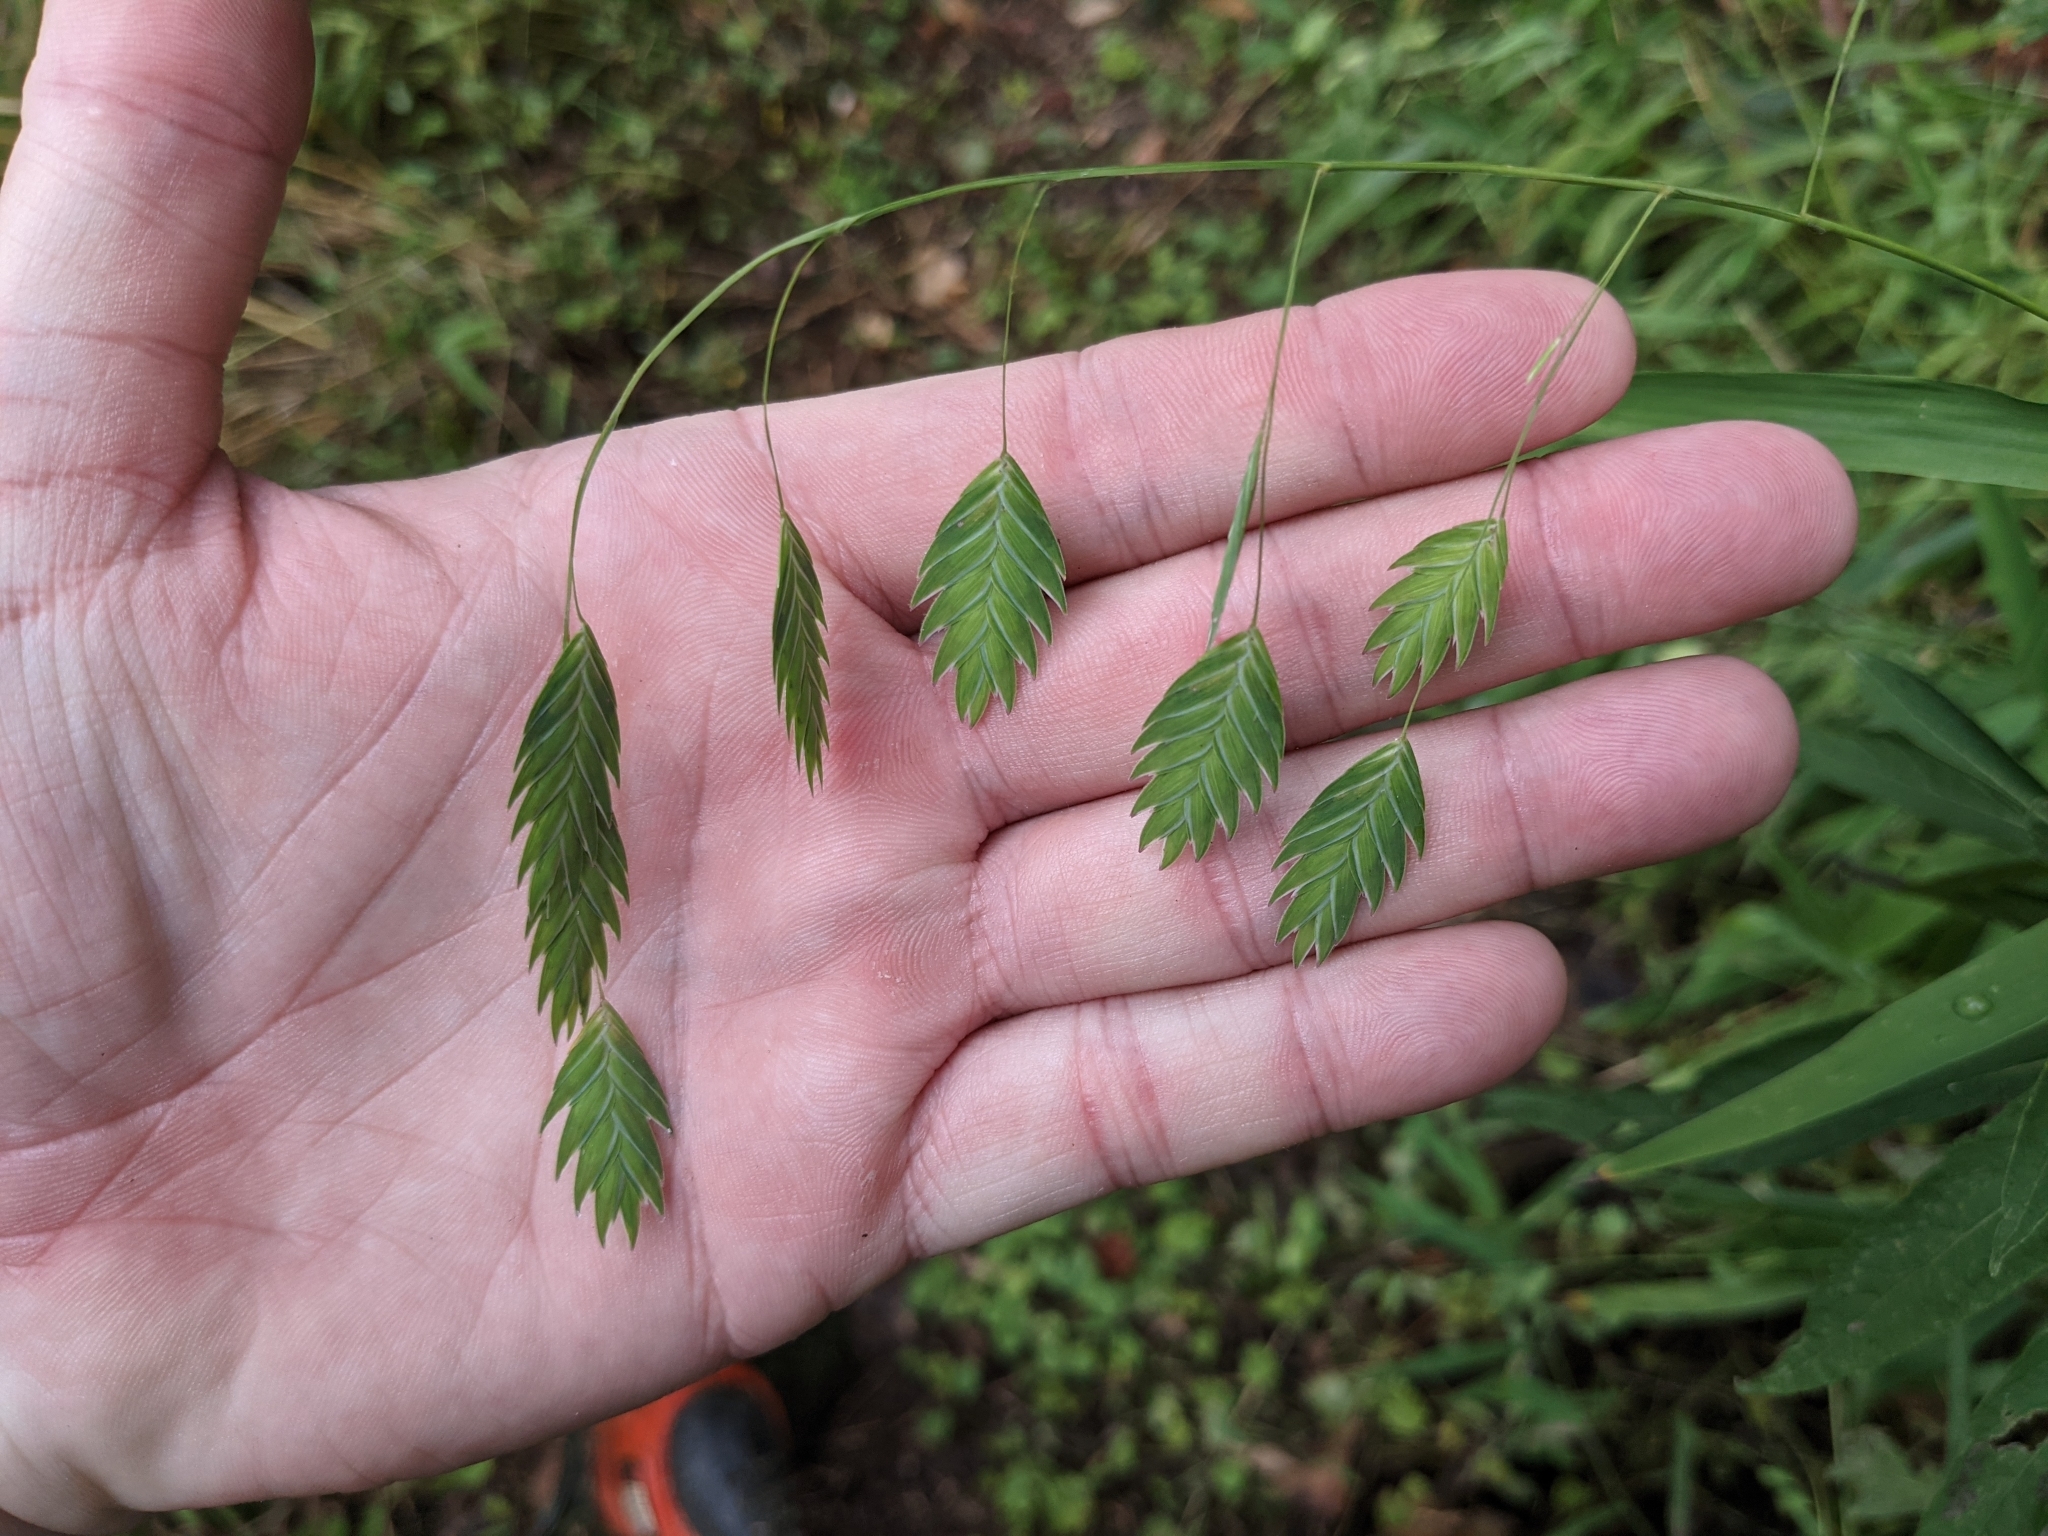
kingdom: Plantae
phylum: Tracheophyta
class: Liliopsida
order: Poales
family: Poaceae
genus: Chasmanthium
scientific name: Chasmanthium latifolium
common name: Broad-leaved chasmanthium
